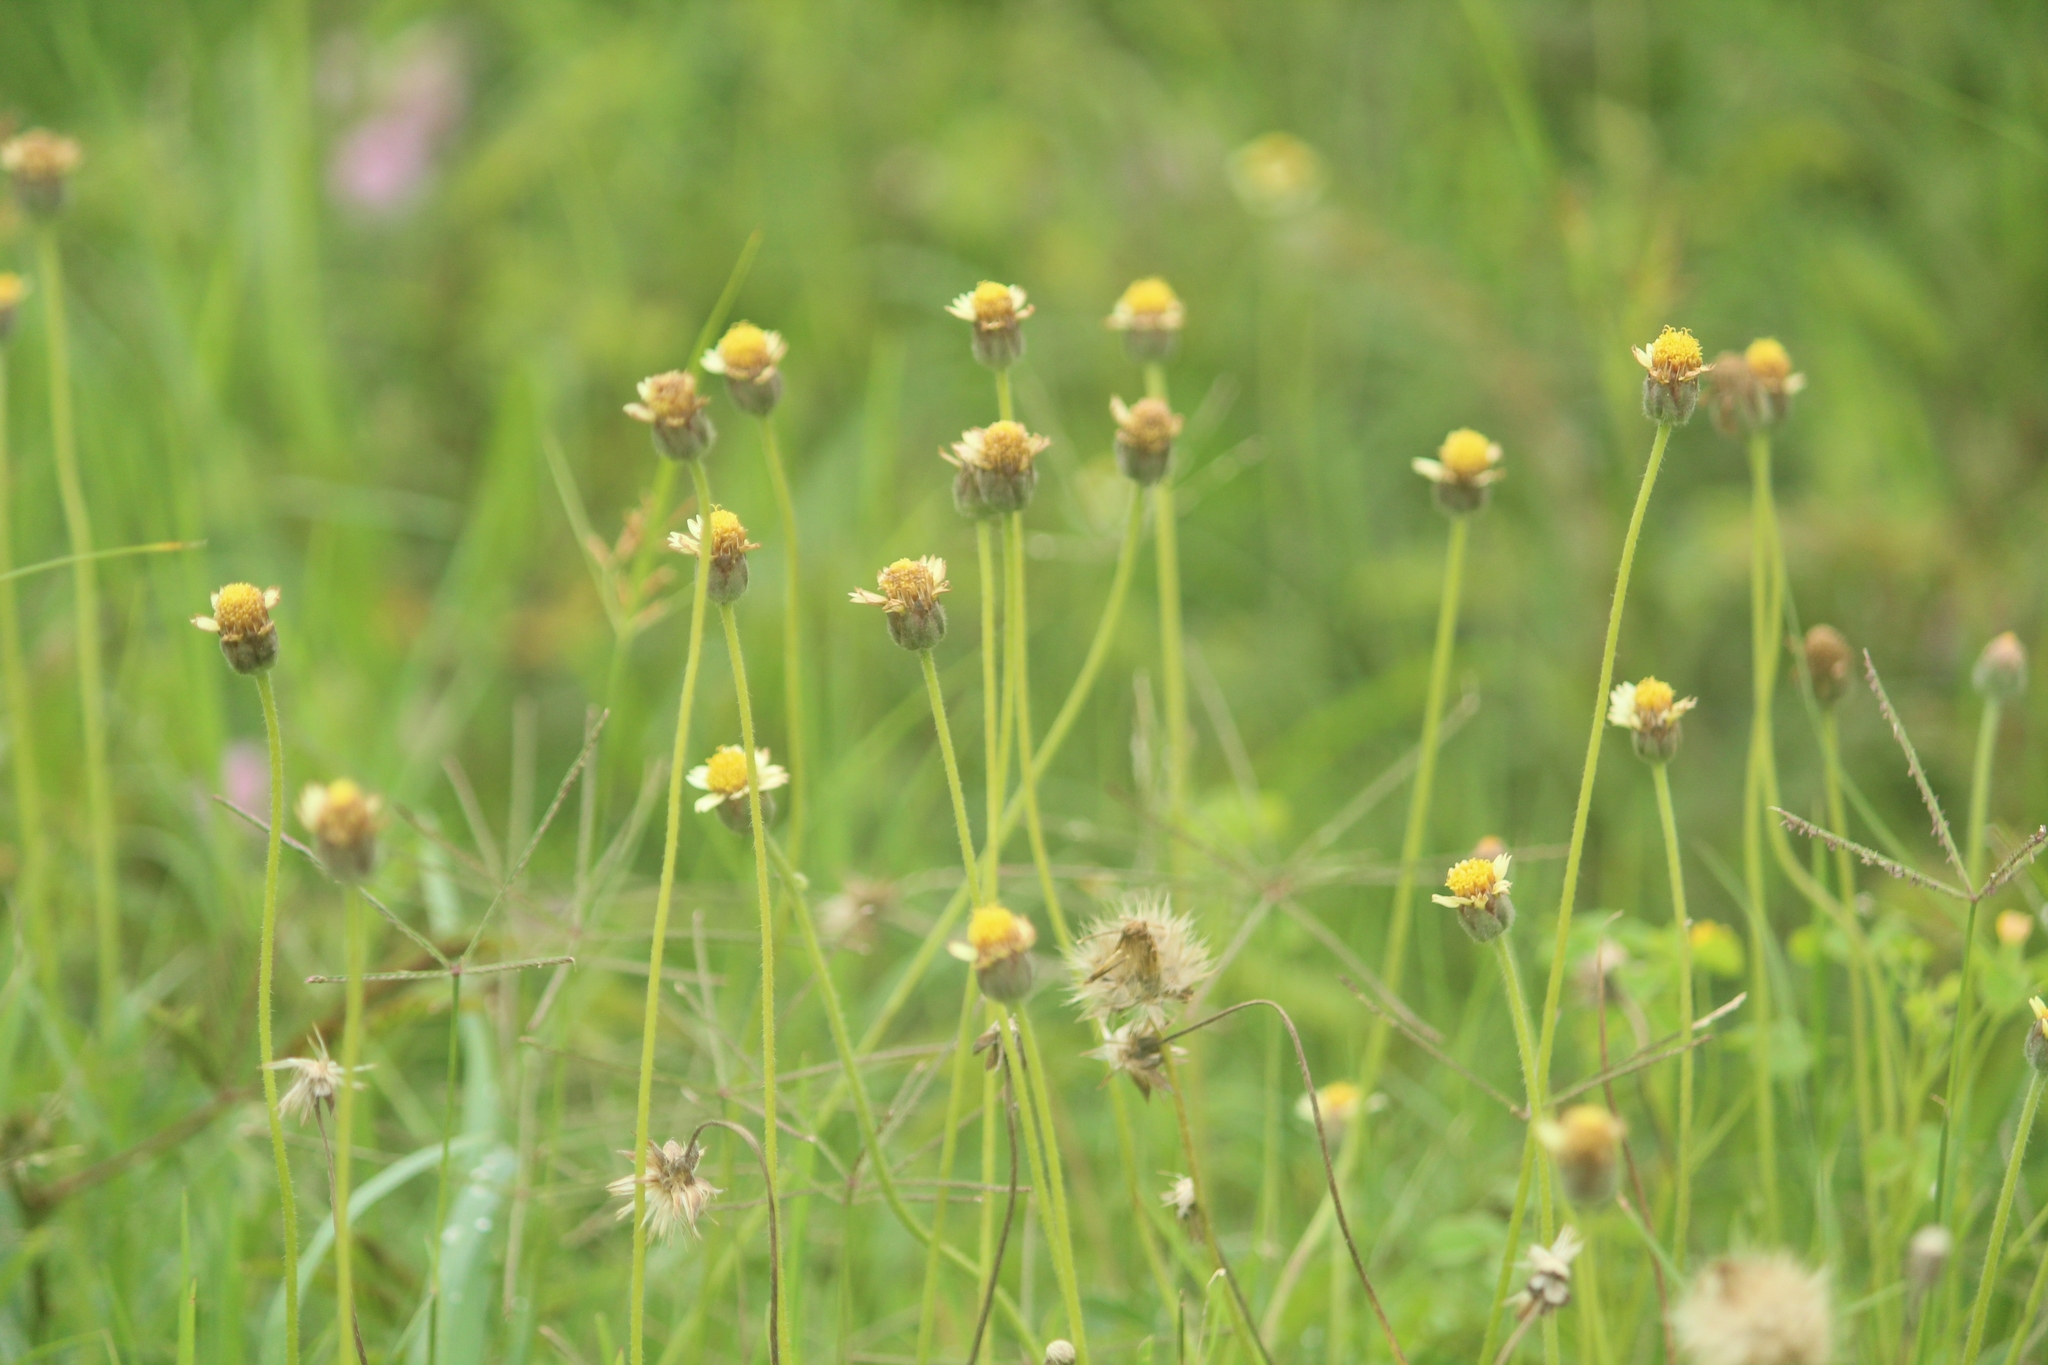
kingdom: Plantae
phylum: Tracheophyta
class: Magnoliopsida
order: Asterales
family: Asteraceae
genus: Tridax
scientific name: Tridax procumbens
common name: Coatbuttons
